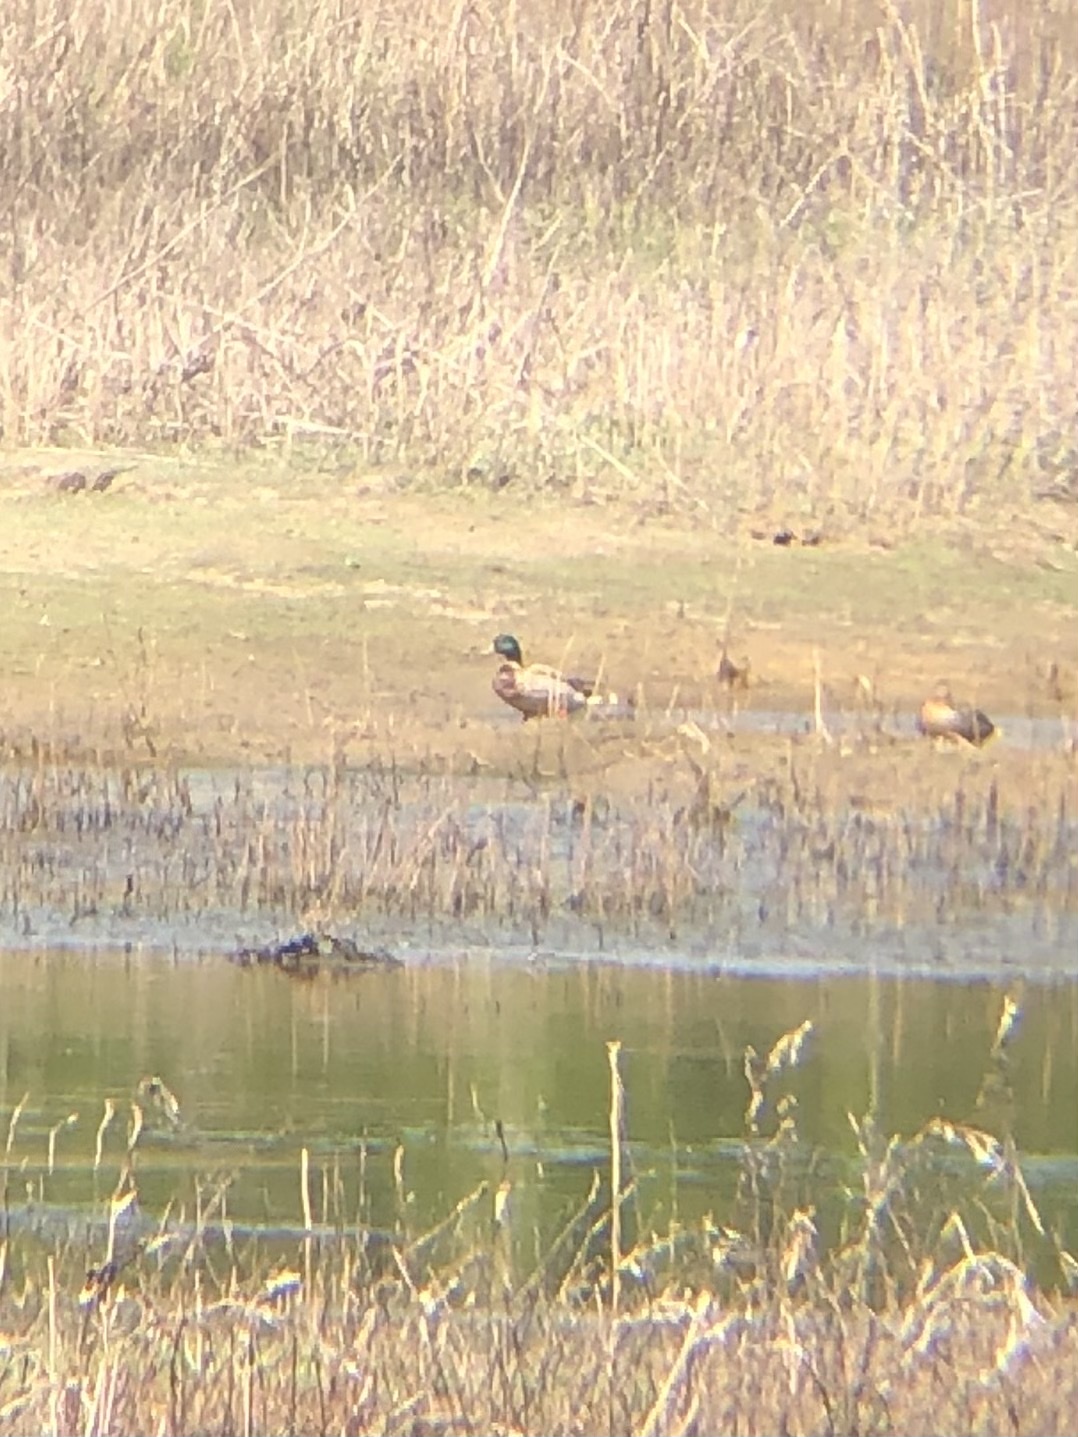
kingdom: Animalia
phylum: Chordata
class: Aves
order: Anseriformes
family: Anatidae
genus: Anas
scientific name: Anas platyrhynchos
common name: Mallard
